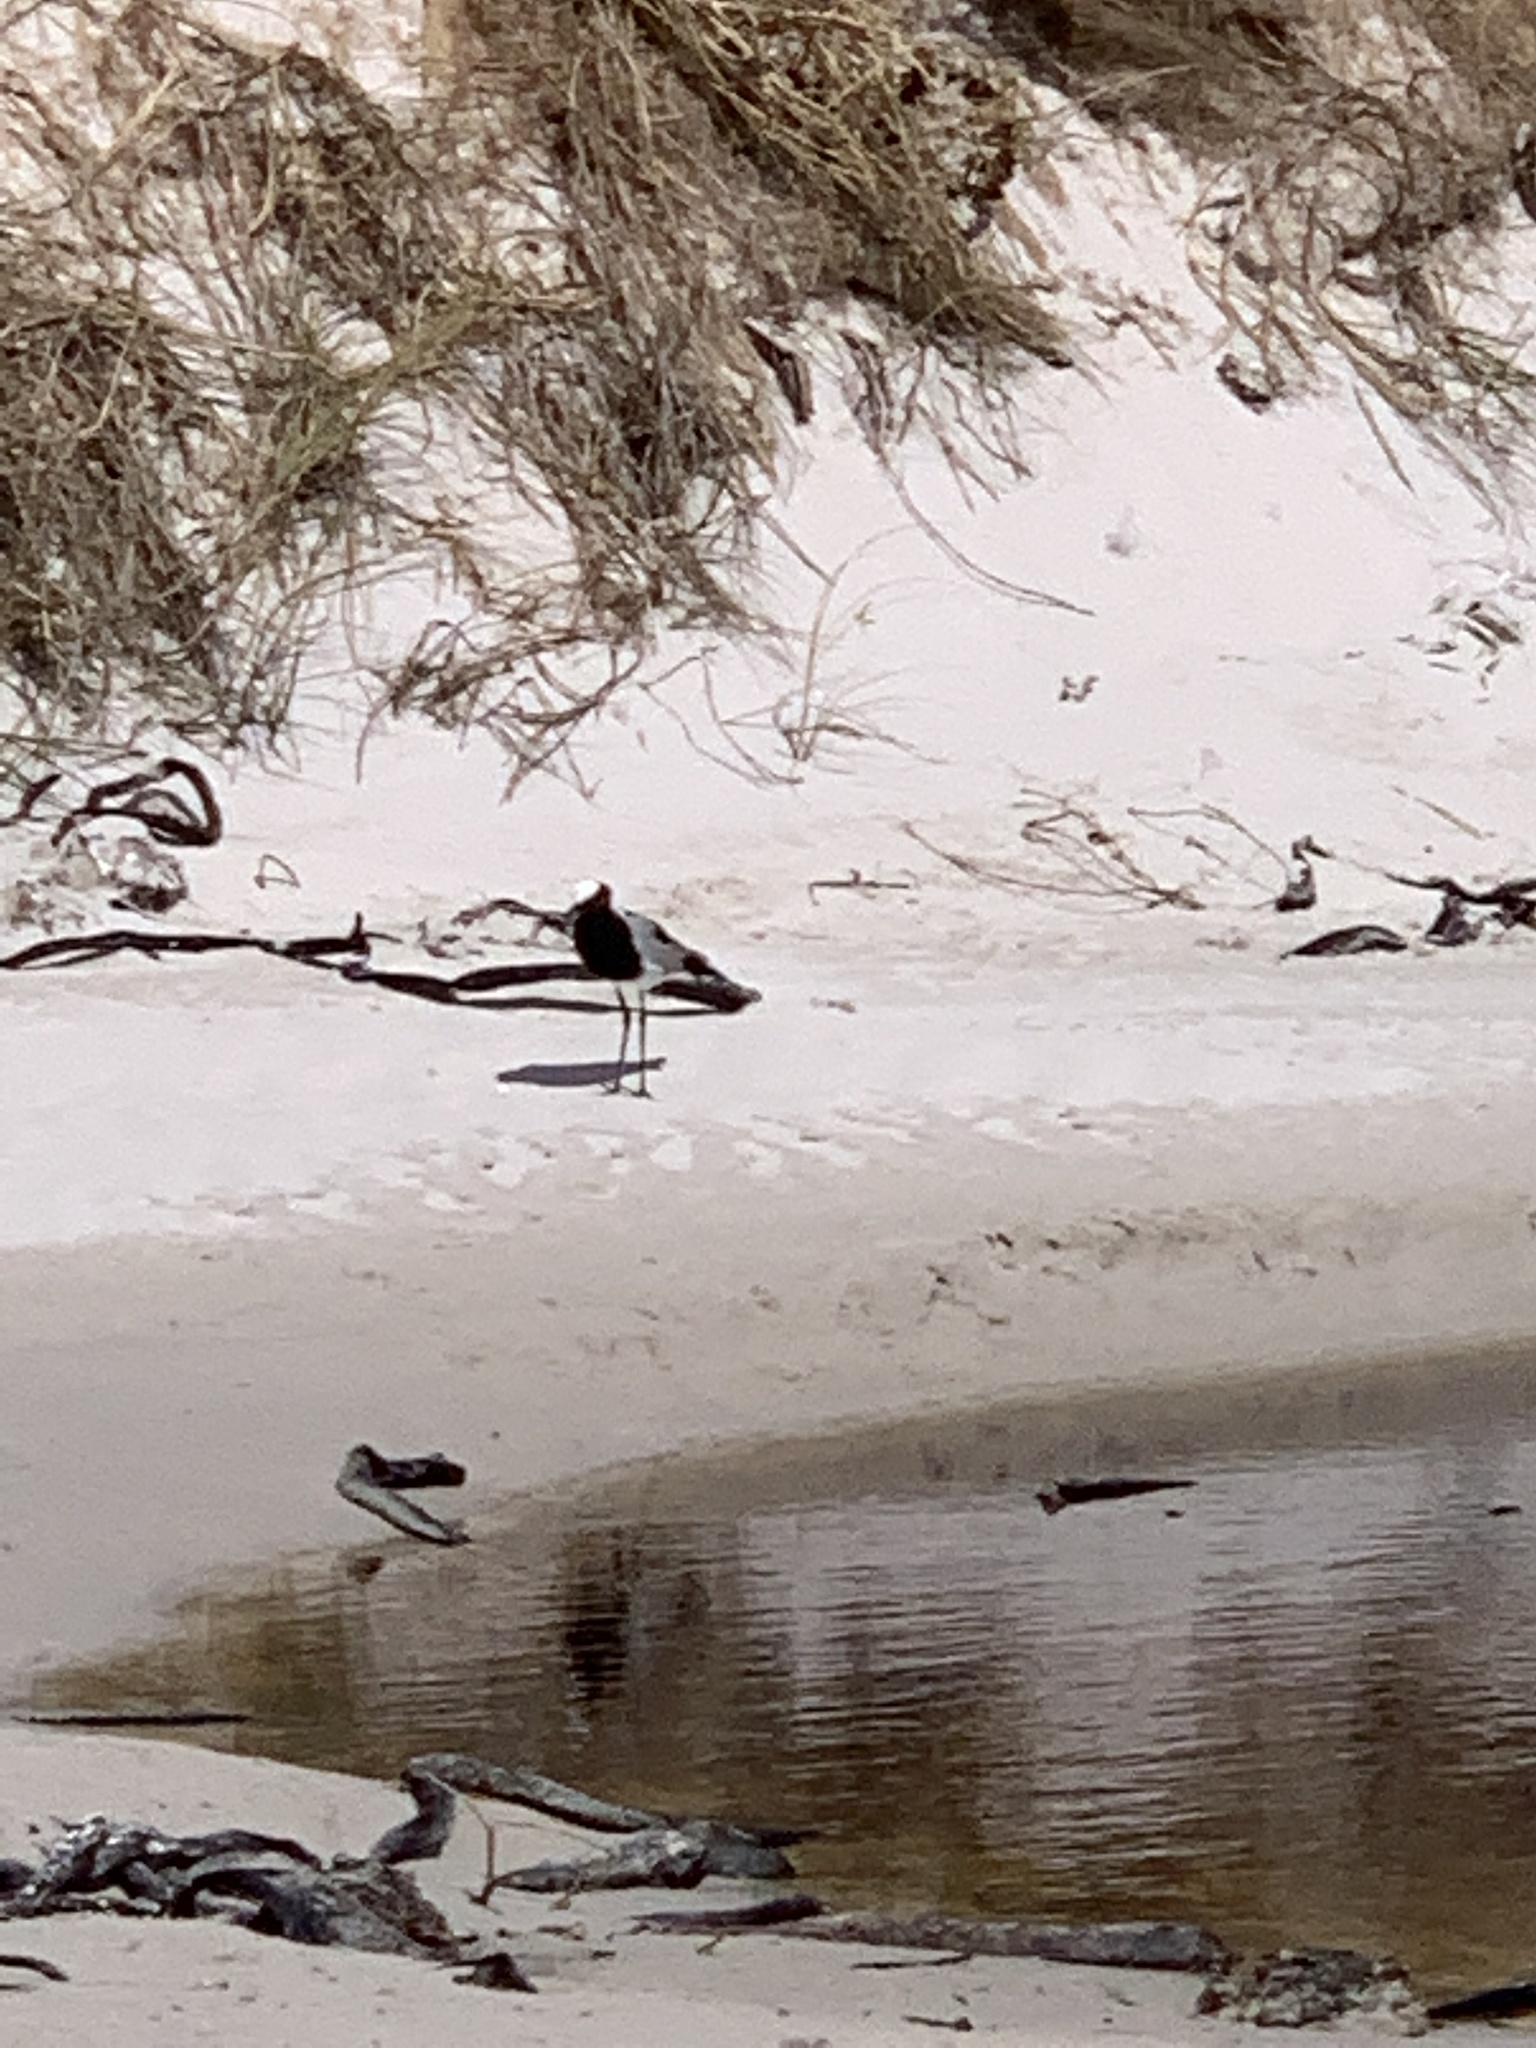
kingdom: Animalia
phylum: Chordata
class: Aves
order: Charadriiformes
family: Charadriidae
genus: Vanellus
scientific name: Vanellus armatus
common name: Blacksmith lapwing
